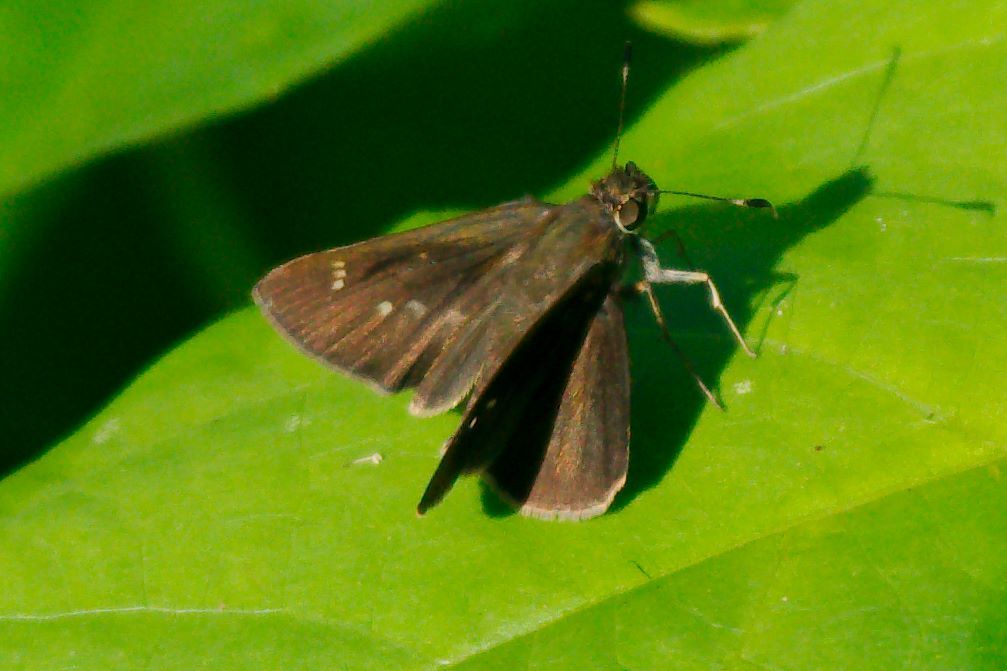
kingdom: Animalia
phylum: Arthropoda
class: Insecta
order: Lepidoptera
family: Hesperiidae
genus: Cymaenes
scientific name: Cymaenes tripunctus
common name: Dingy dotted skipper
